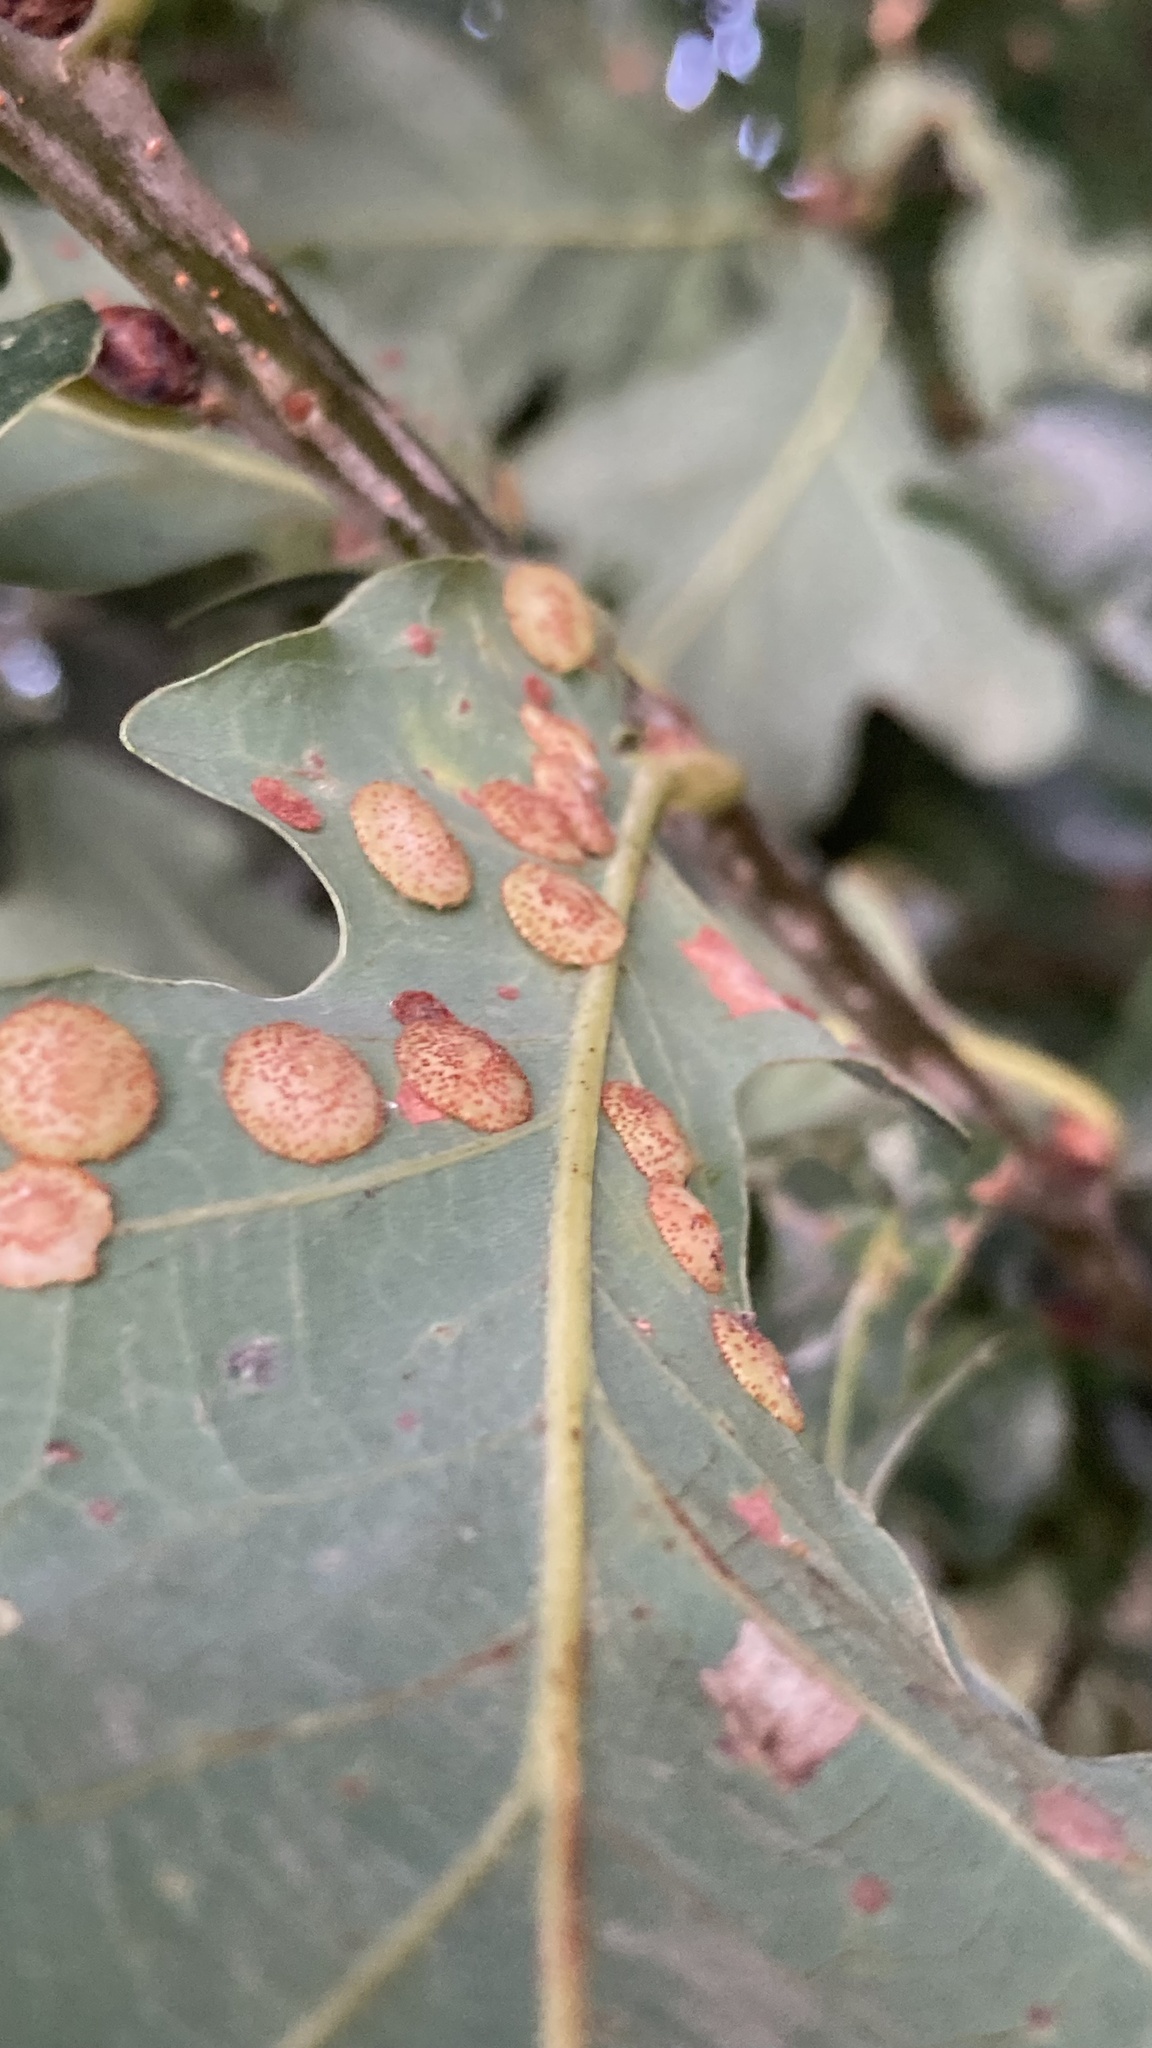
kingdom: Animalia
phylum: Arthropoda
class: Insecta
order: Hymenoptera
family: Cynipidae
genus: Neuroterus
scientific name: Neuroterus quercusbaccarum
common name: Common spangle gall
